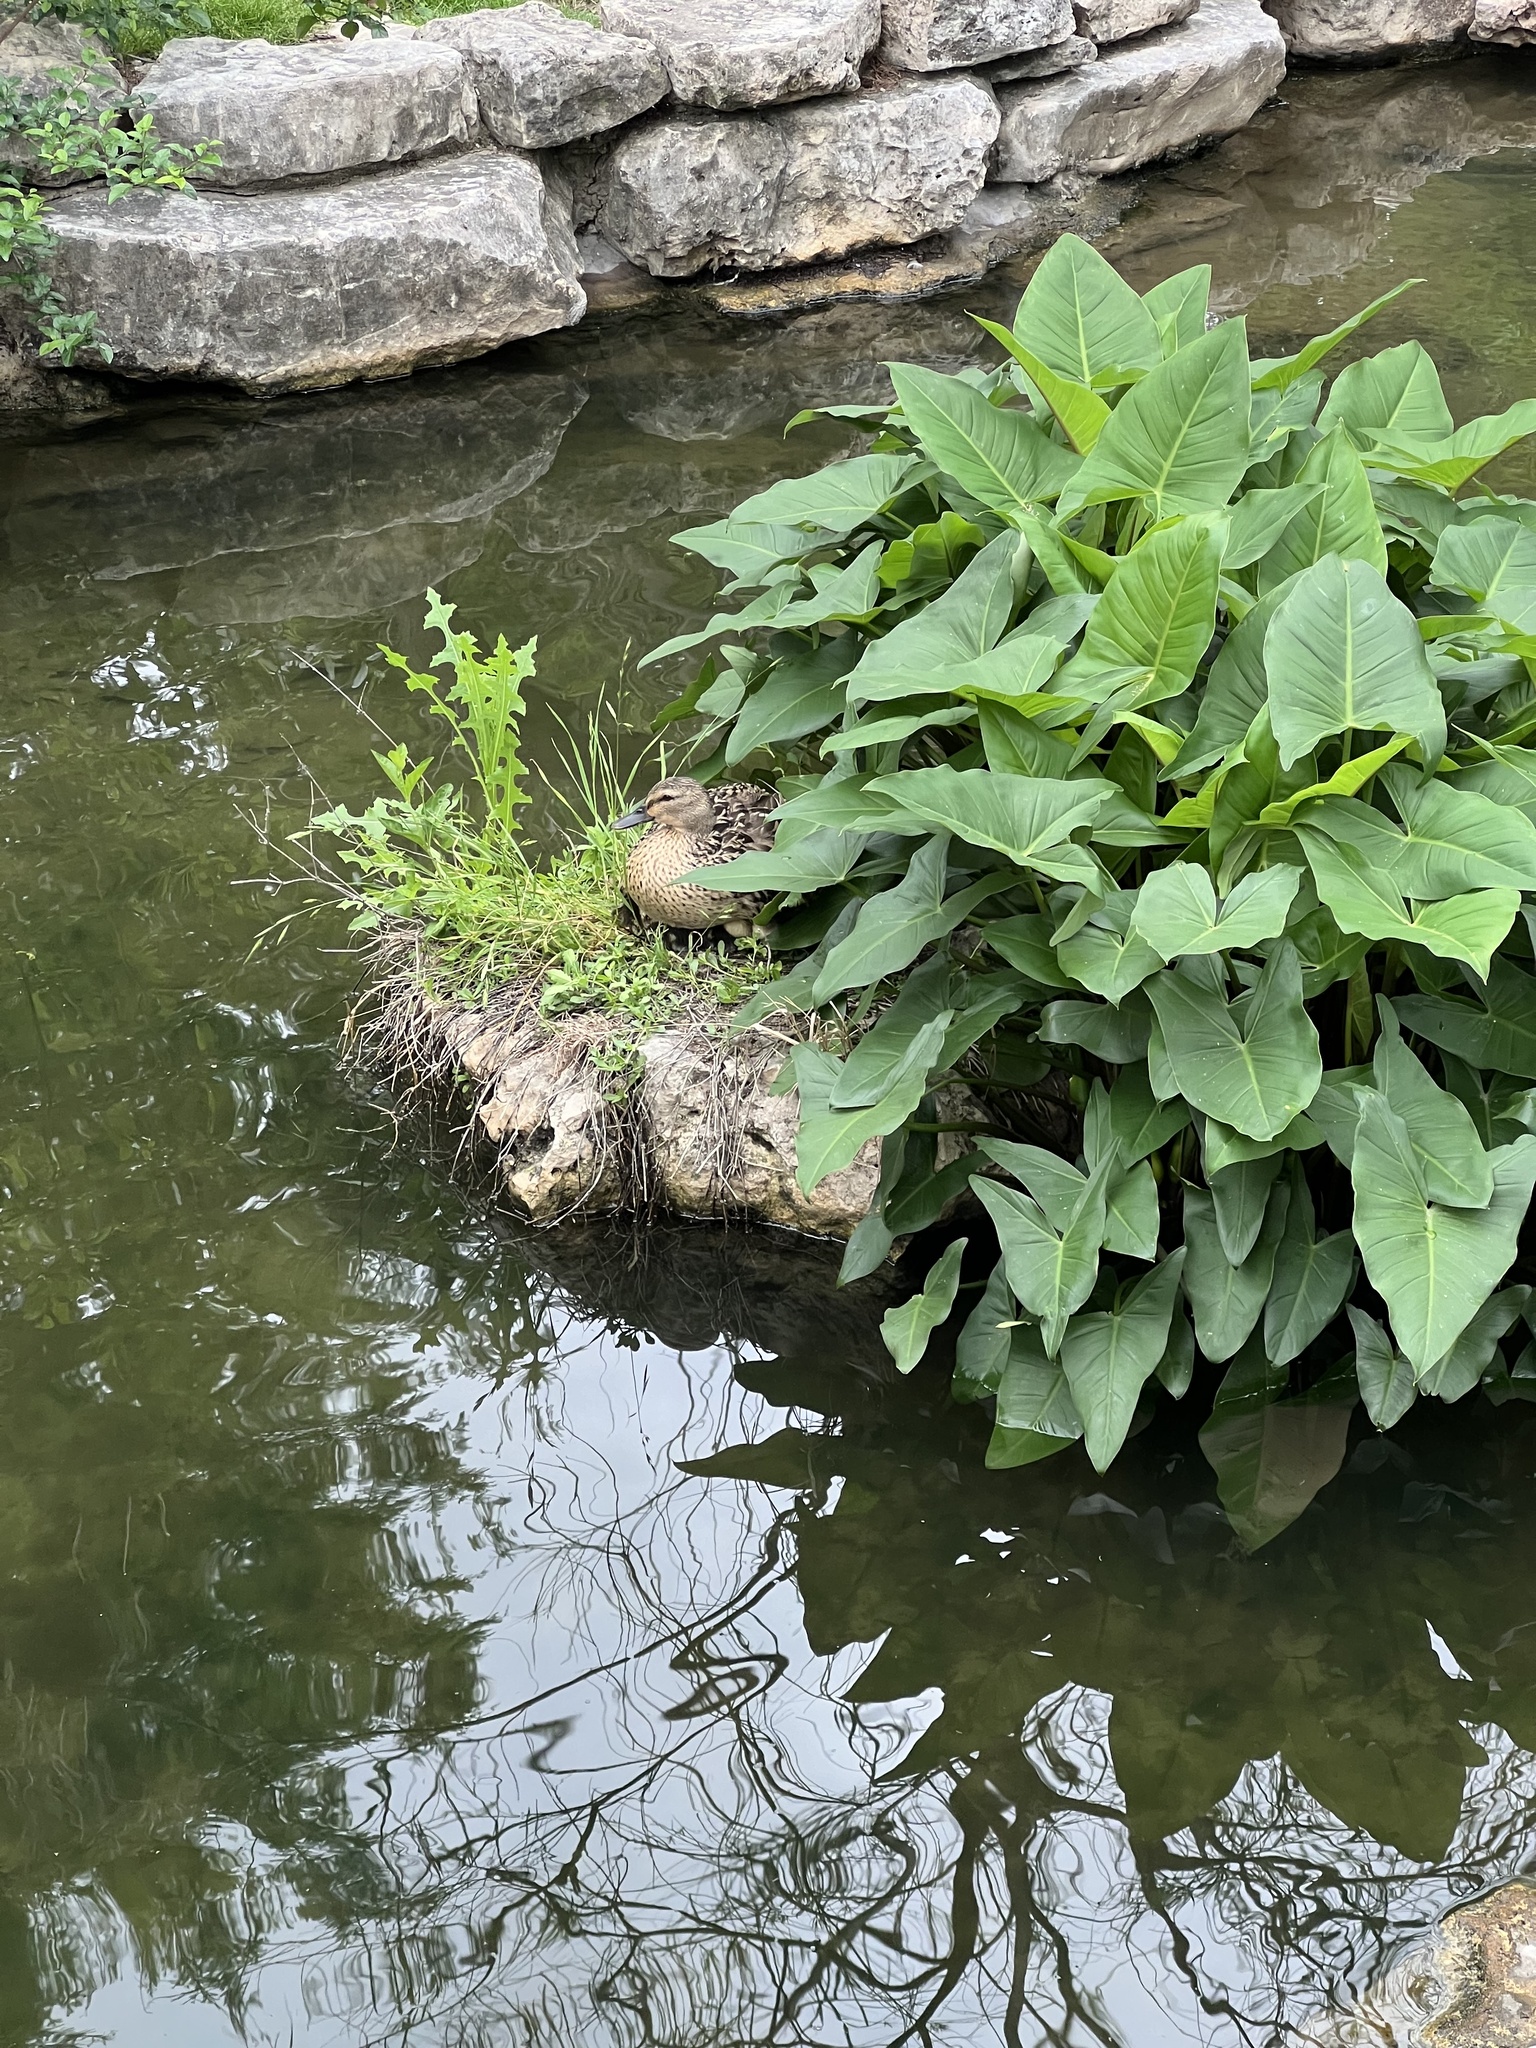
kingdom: Animalia
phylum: Chordata
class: Aves
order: Anseriformes
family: Anatidae
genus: Anas
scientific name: Anas platyrhynchos
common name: Mallard
